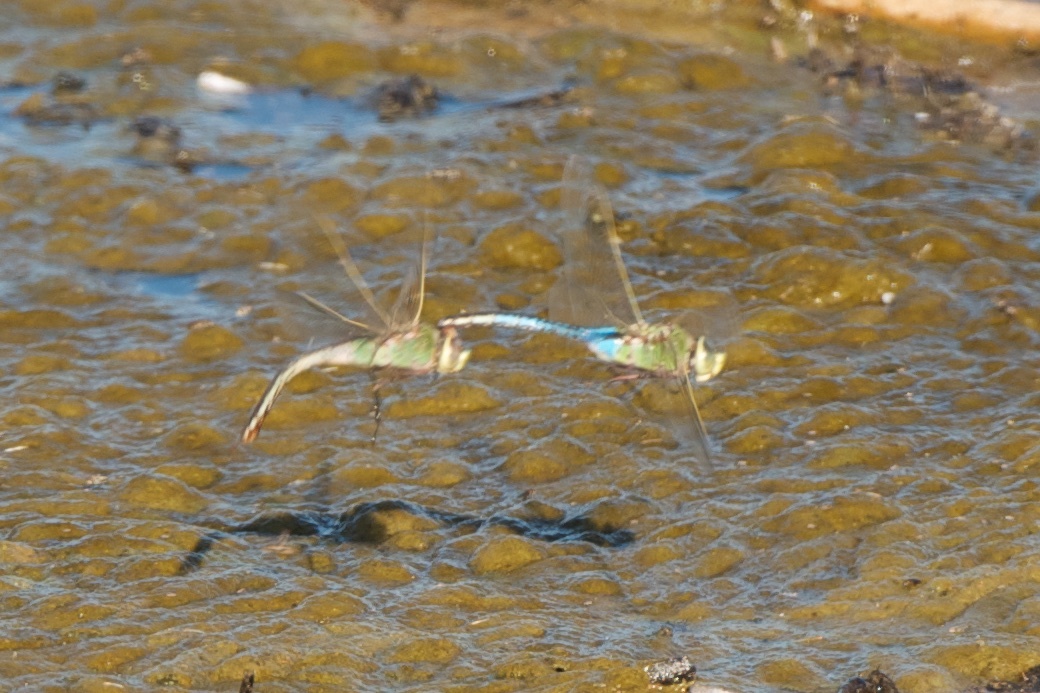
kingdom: Animalia
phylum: Arthropoda
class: Insecta
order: Odonata
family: Aeshnidae
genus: Anax
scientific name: Anax junius
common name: Common green darner
